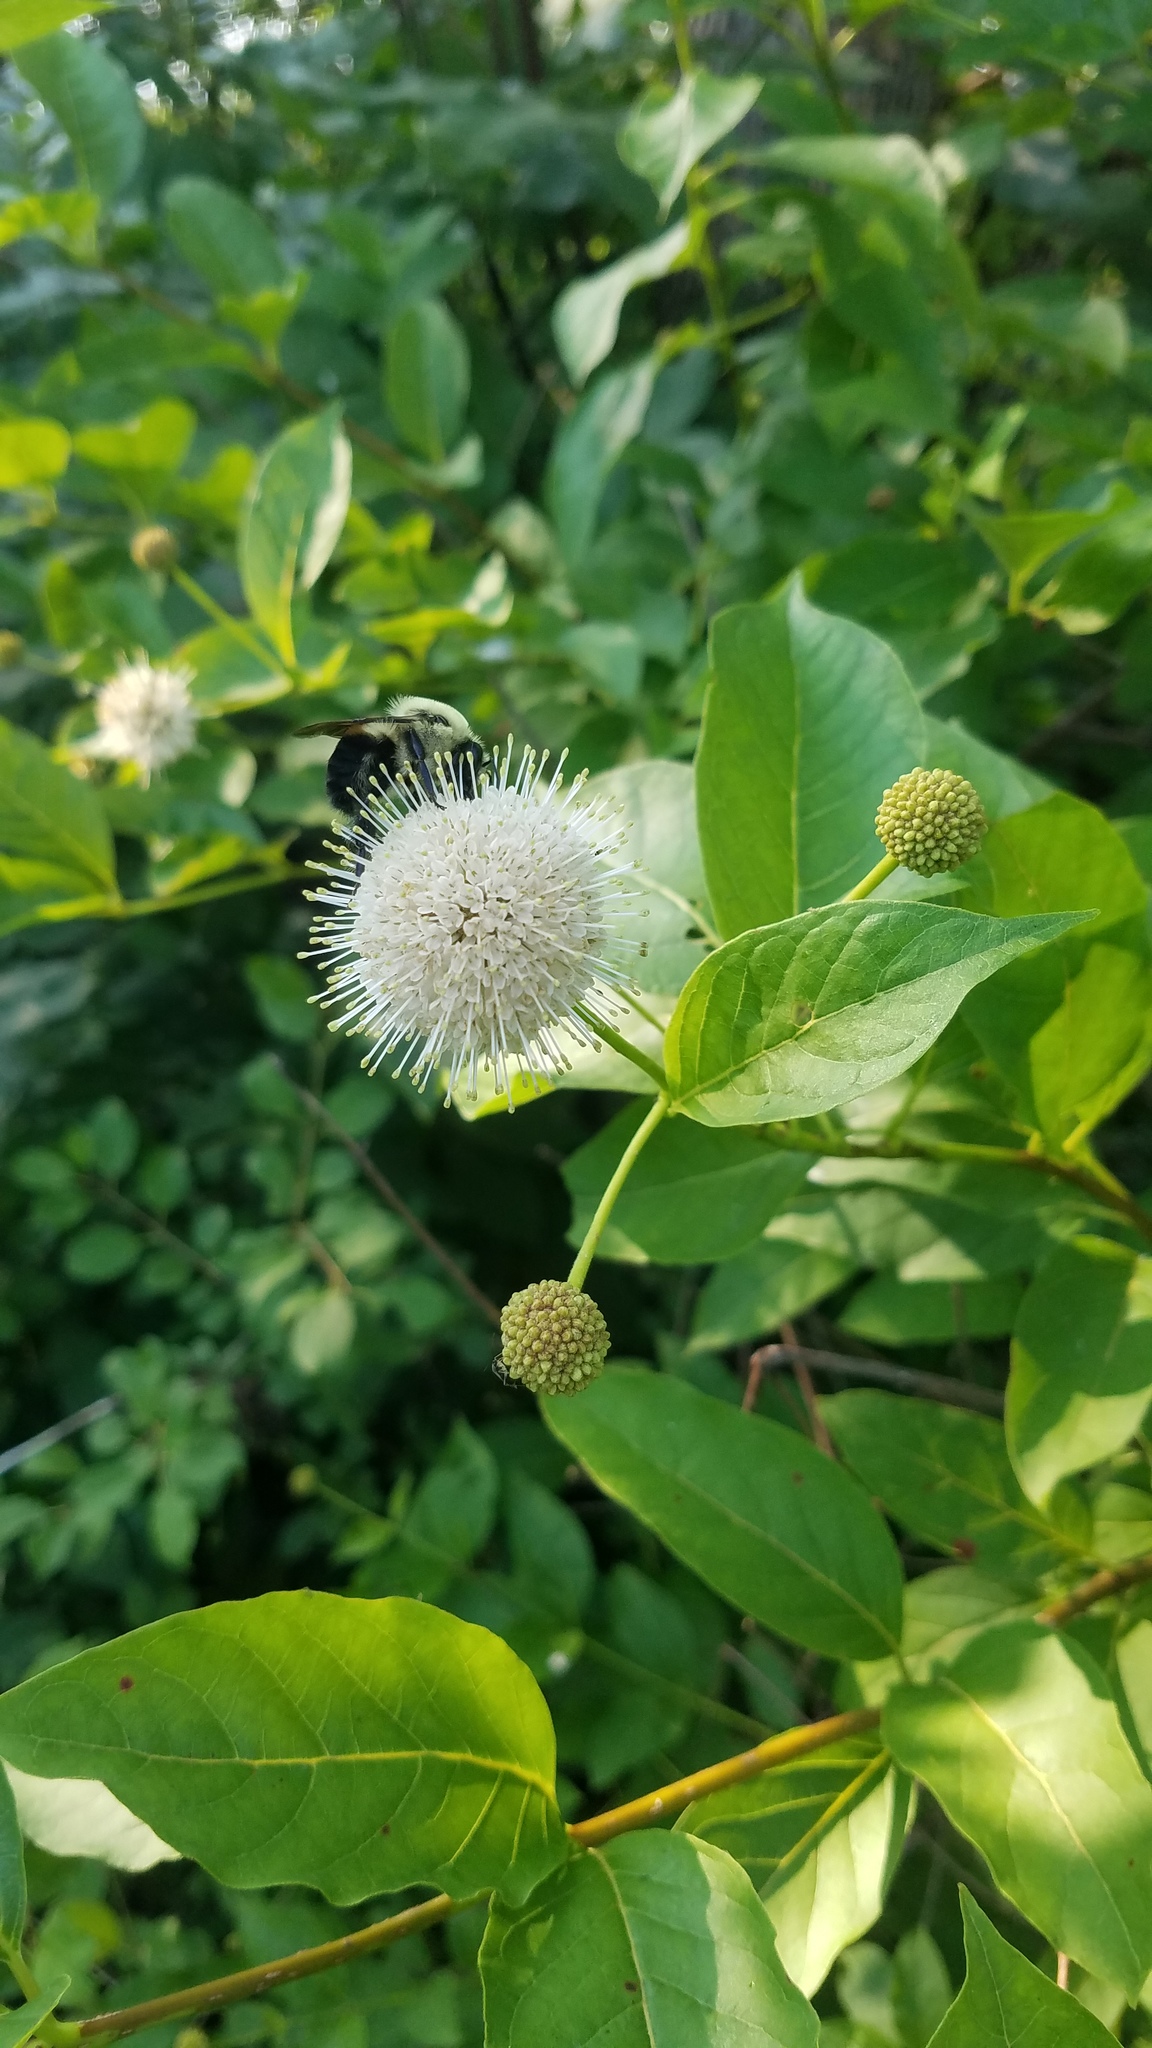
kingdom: Plantae
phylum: Tracheophyta
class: Magnoliopsida
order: Gentianales
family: Rubiaceae
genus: Cephalanthus
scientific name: Cephalanthus occidentalis
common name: Button-willow
